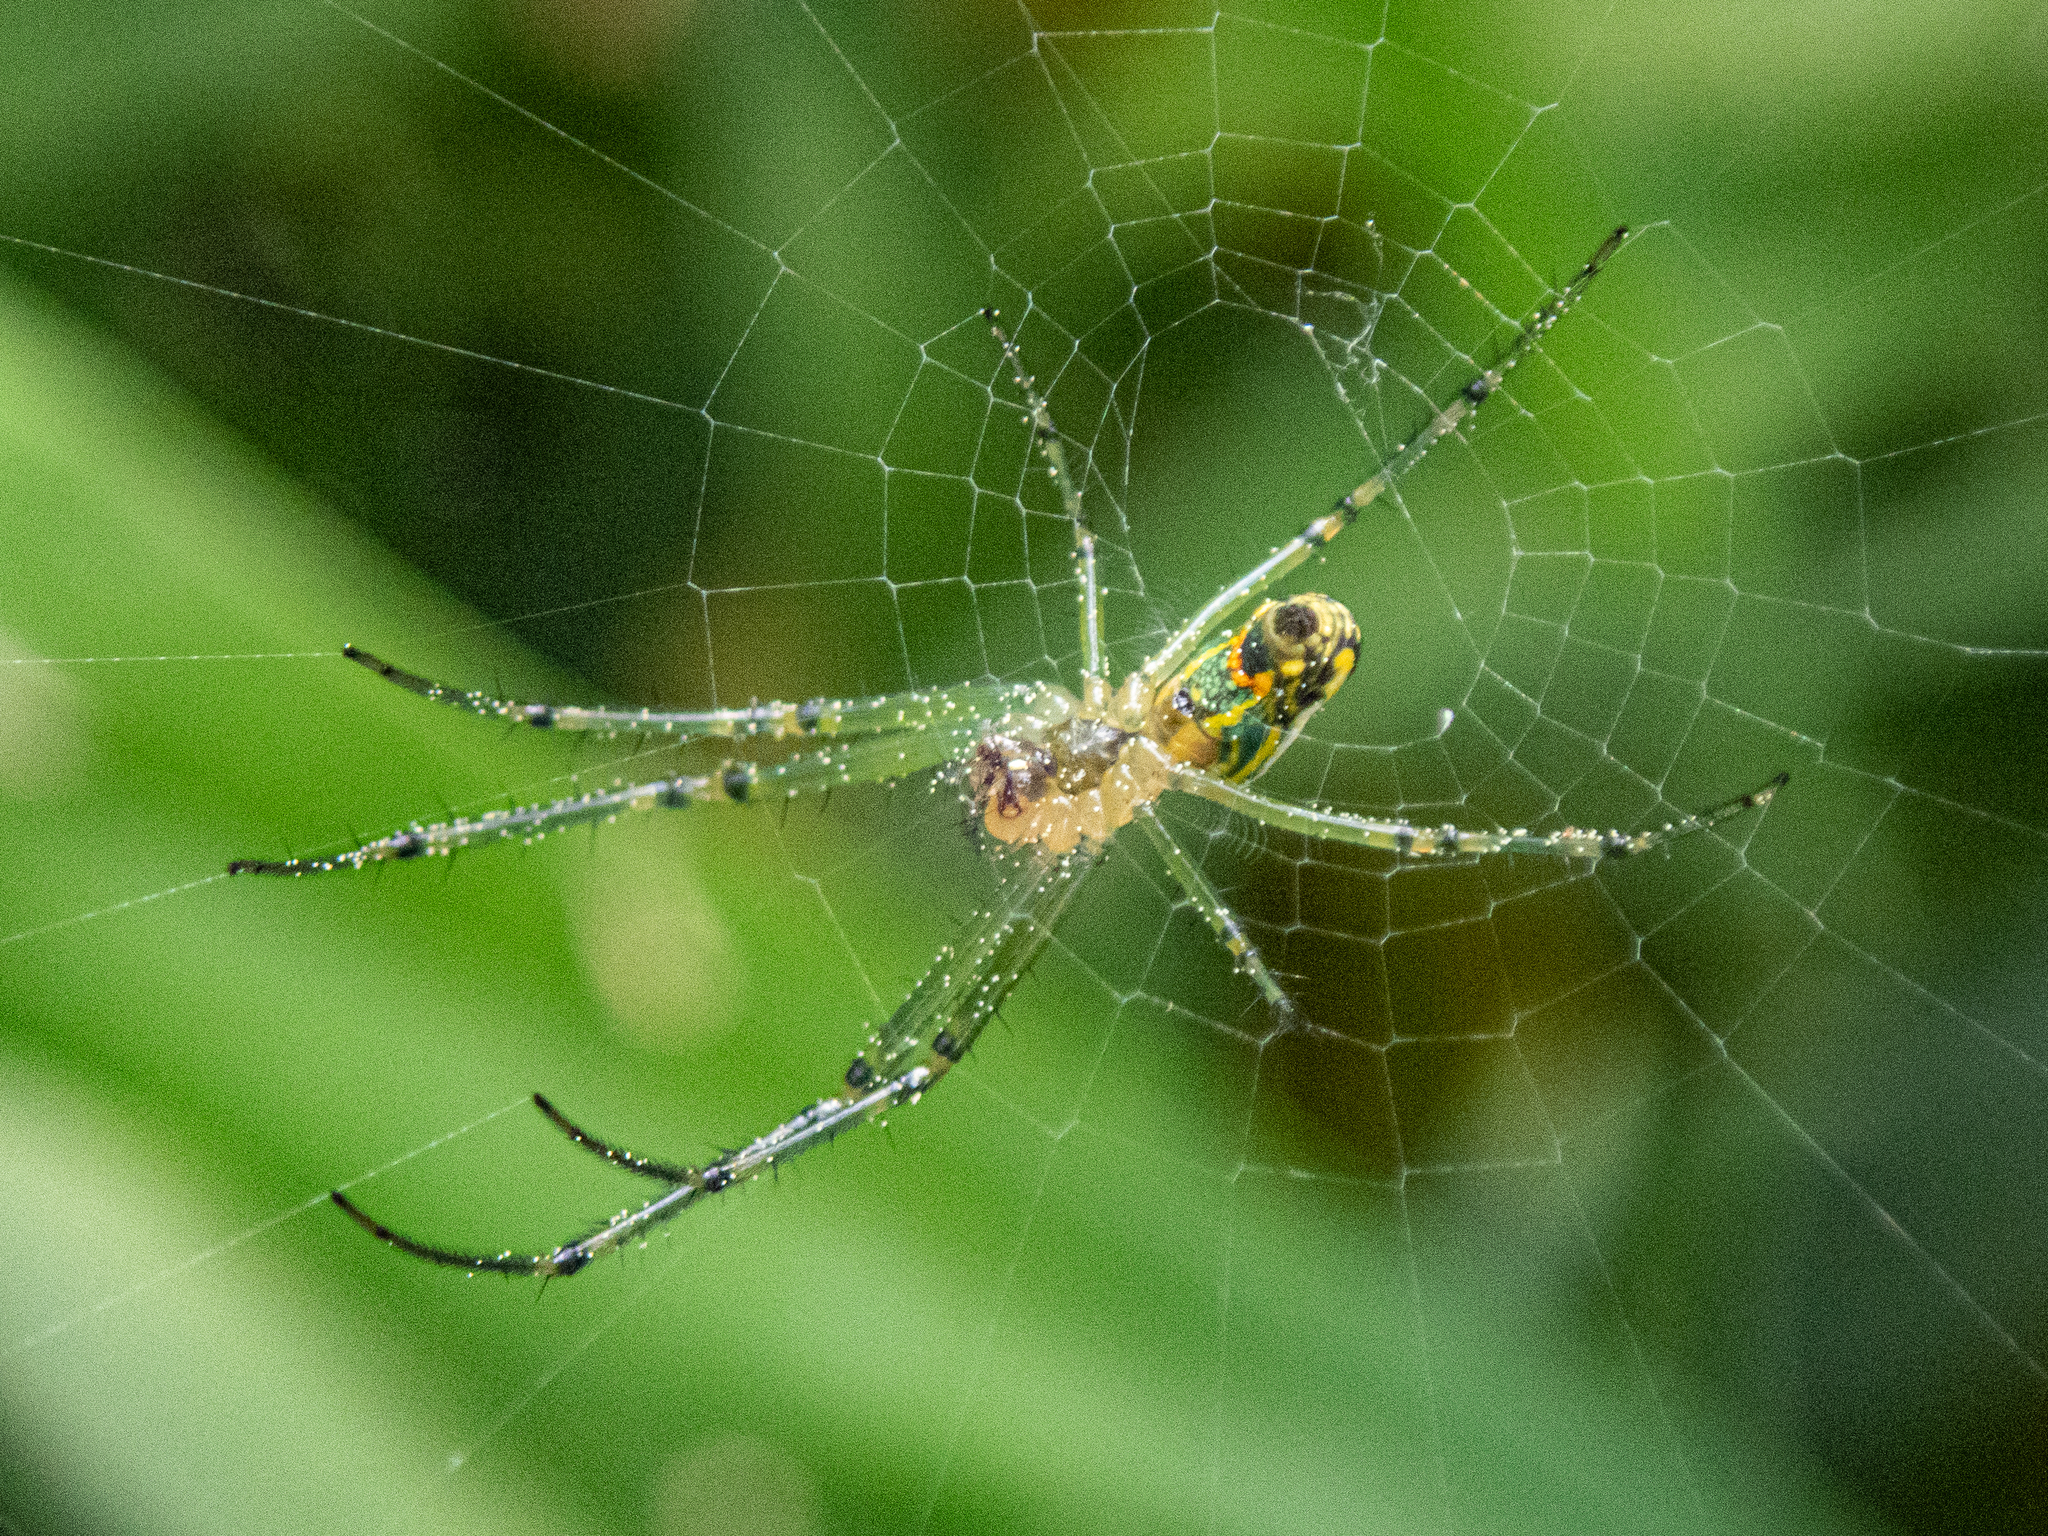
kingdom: Animalia
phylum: Arthropoda
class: Arachnida
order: Araneae
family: Tetragnathidae
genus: Leucauge
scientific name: Leucauge venusta
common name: Longjawed orb weavers
